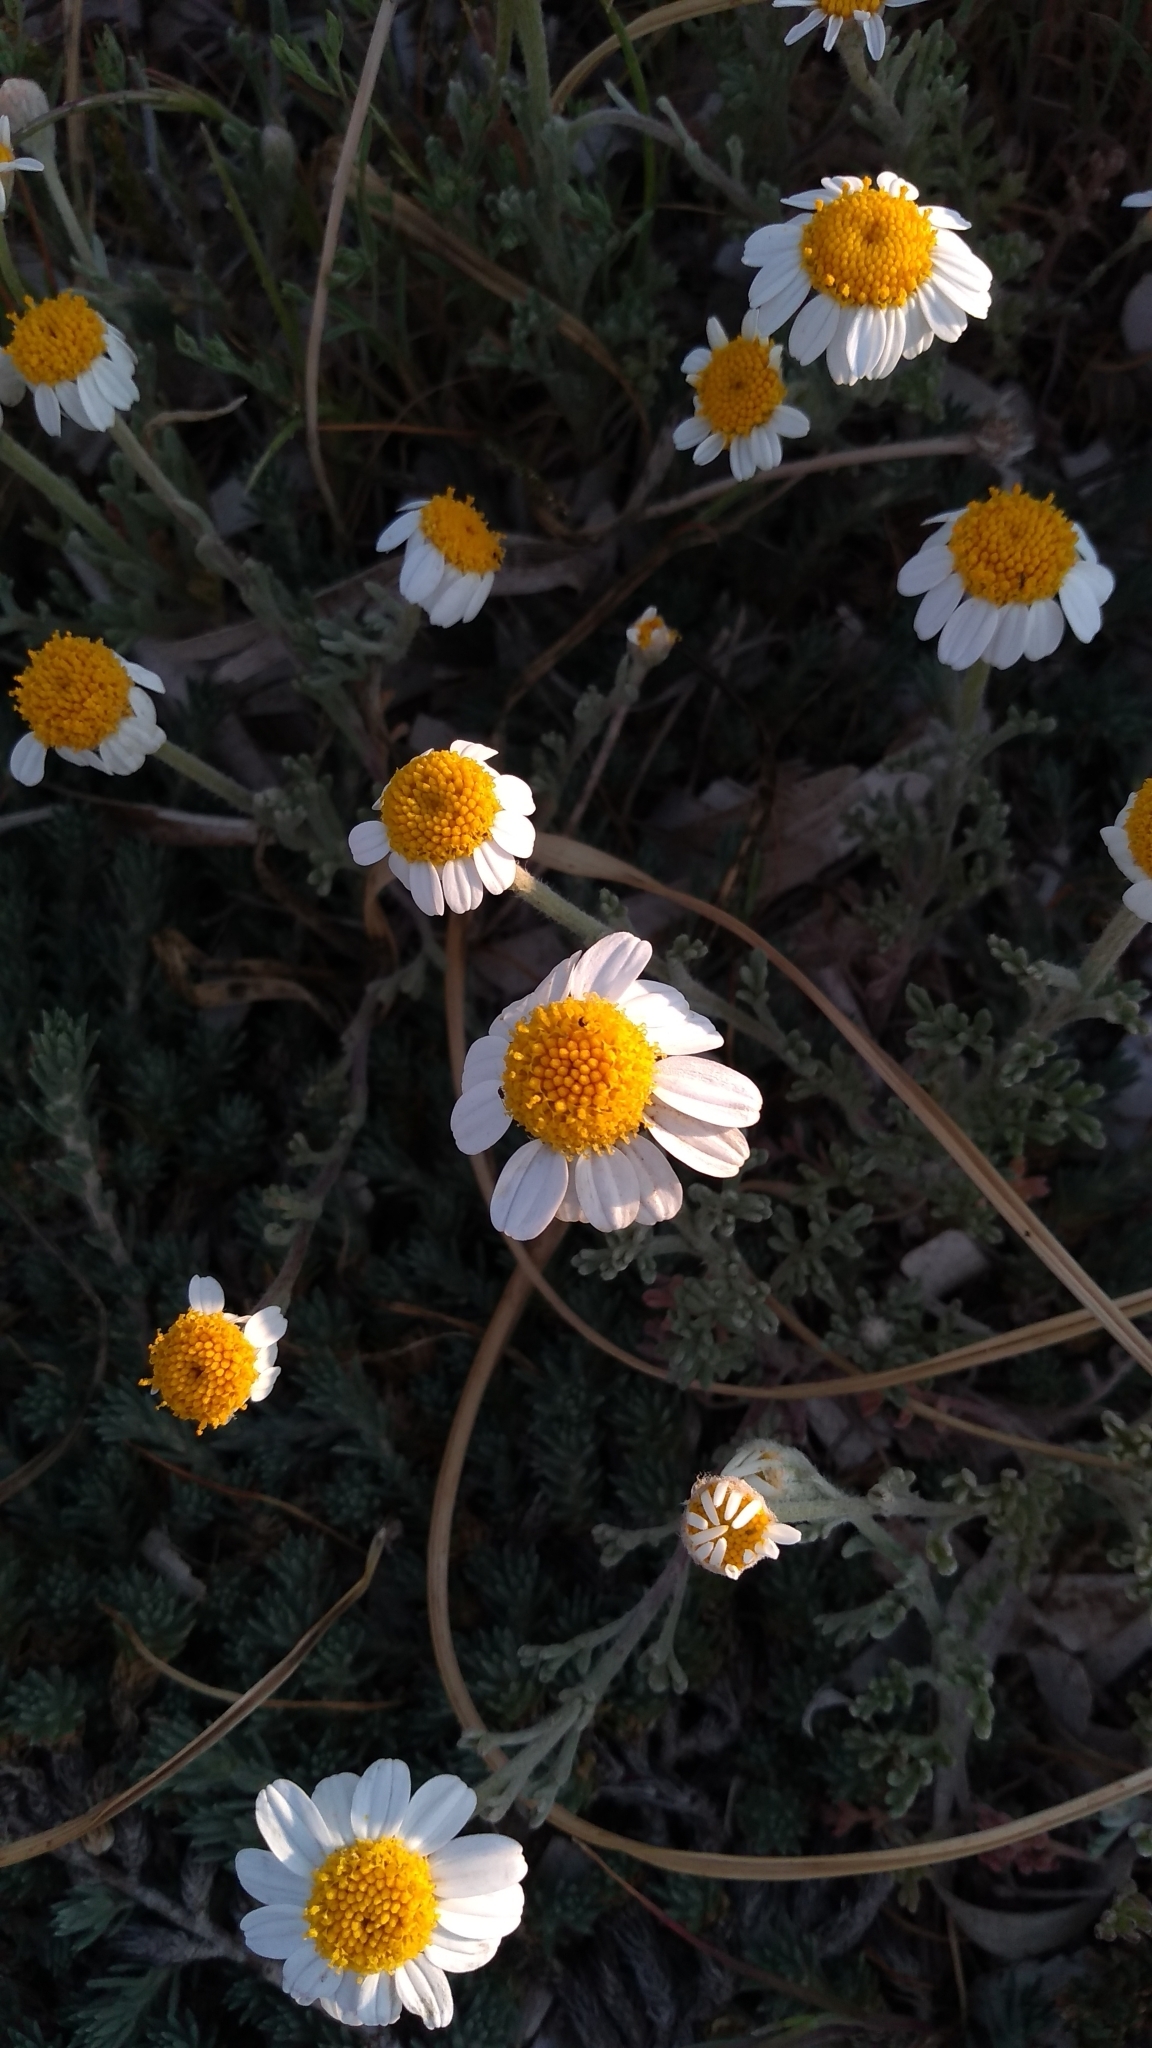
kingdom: Plantae
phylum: Tracheophyta
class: Magnoliopsida
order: Asterales
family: Asteraceae
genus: Anthemis
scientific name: Anthemis
